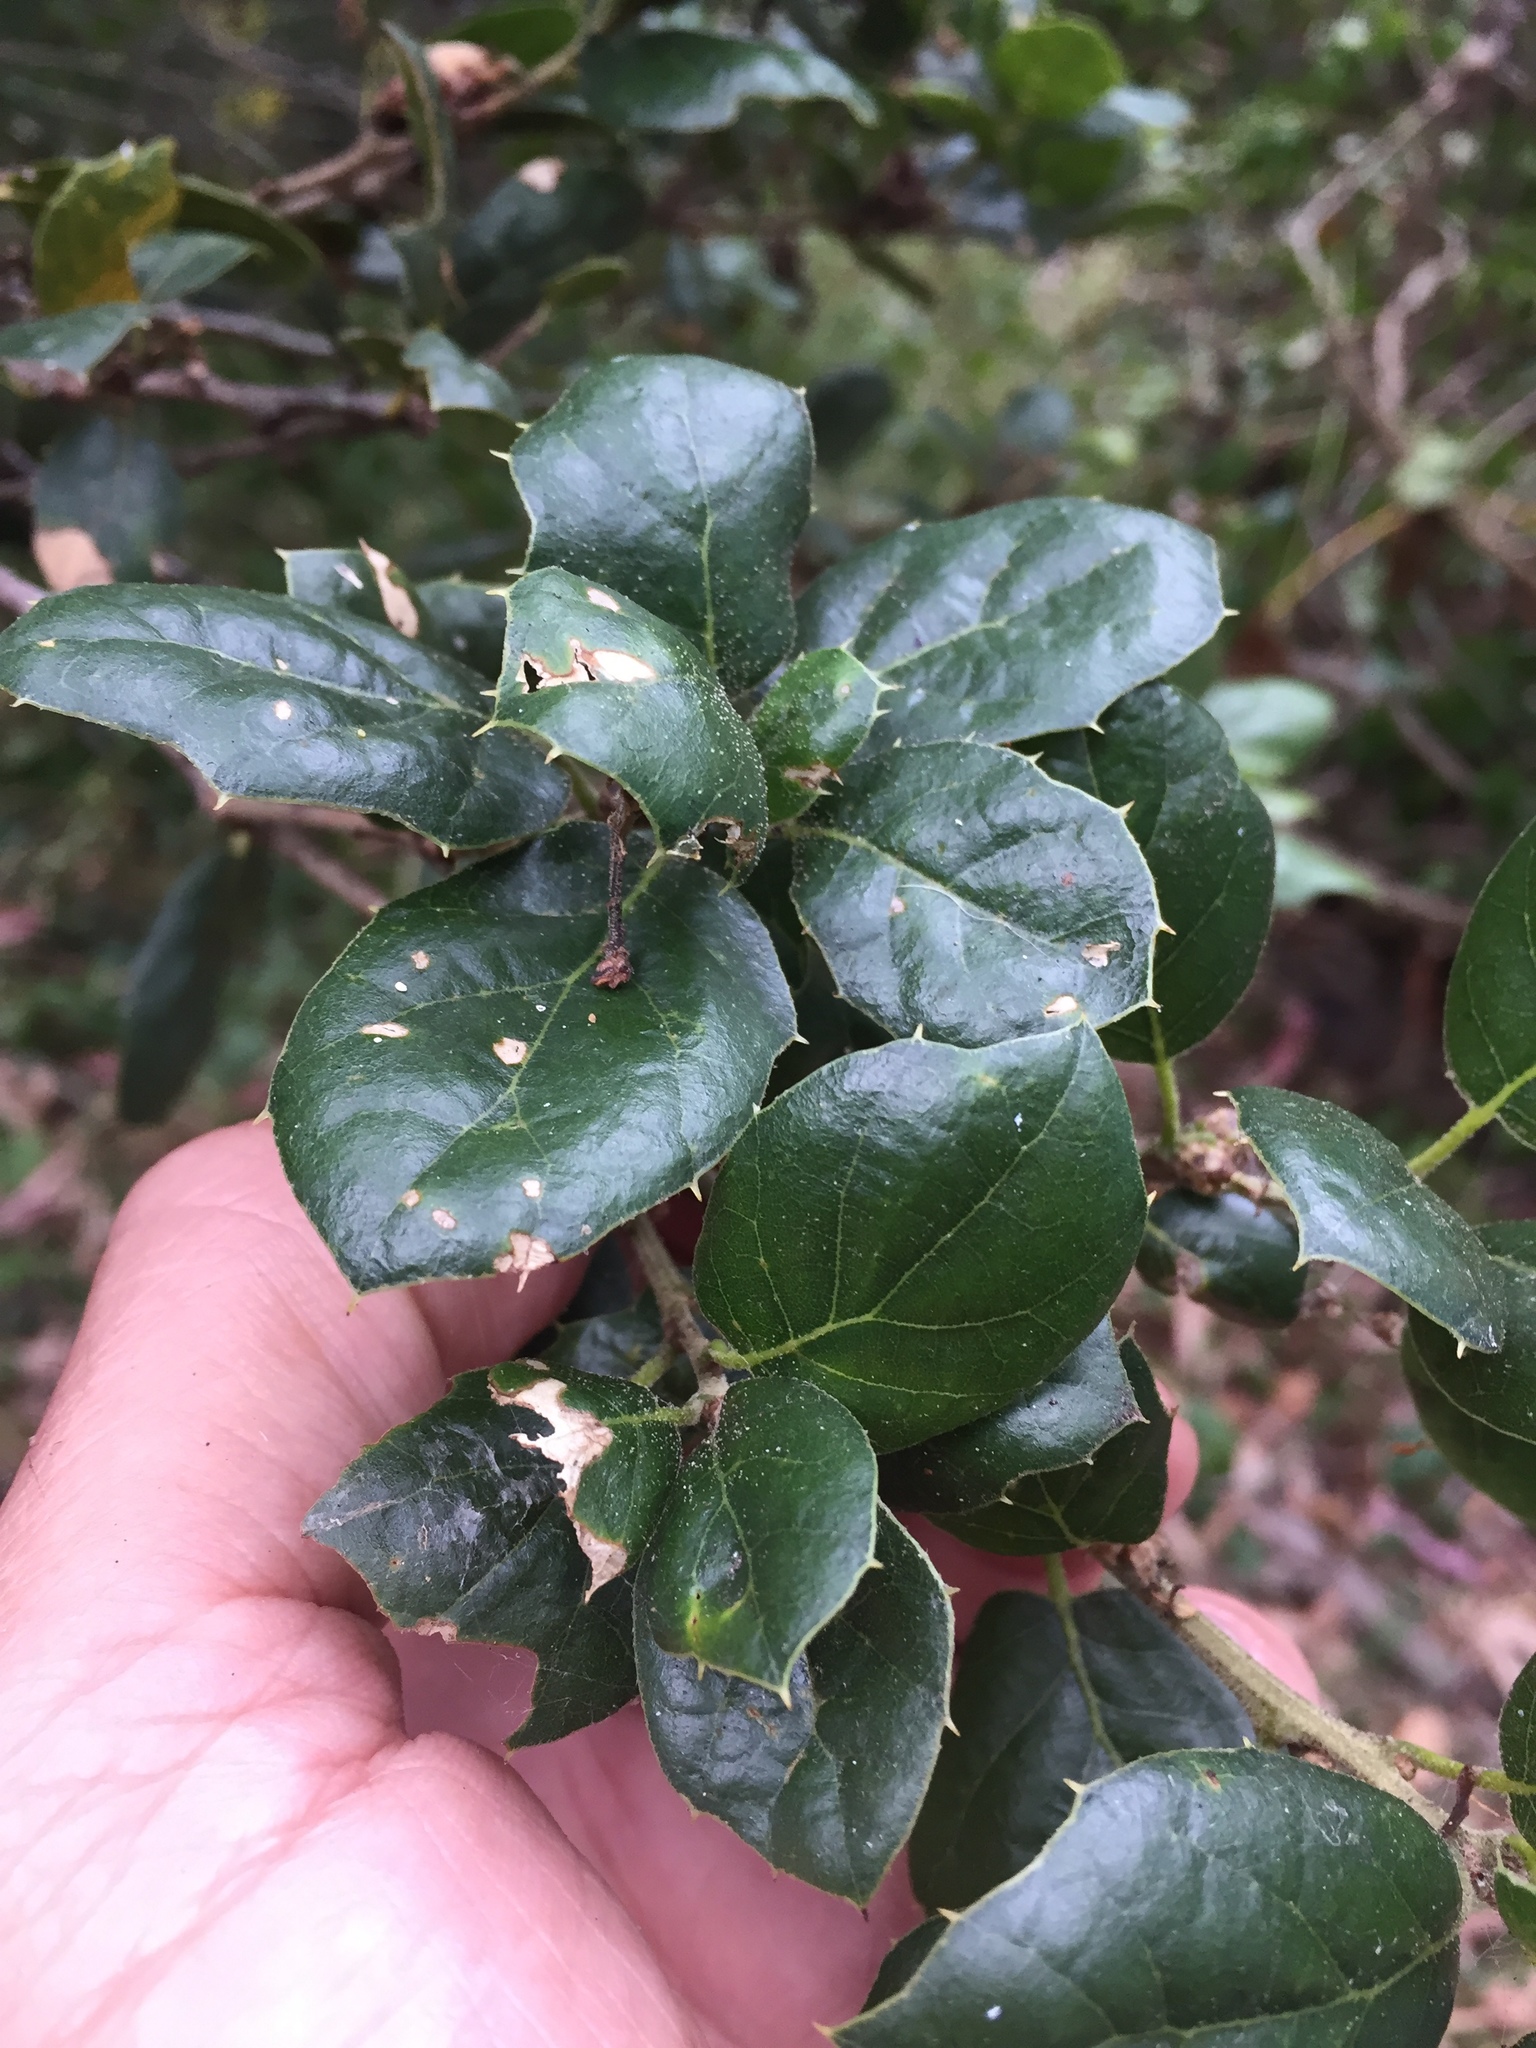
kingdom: Plantae
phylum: Tracheophyta
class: Magnoliopsida
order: Fagales
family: Fagaceae
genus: Quercus
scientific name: Quercus agrifolia
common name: California live oak
